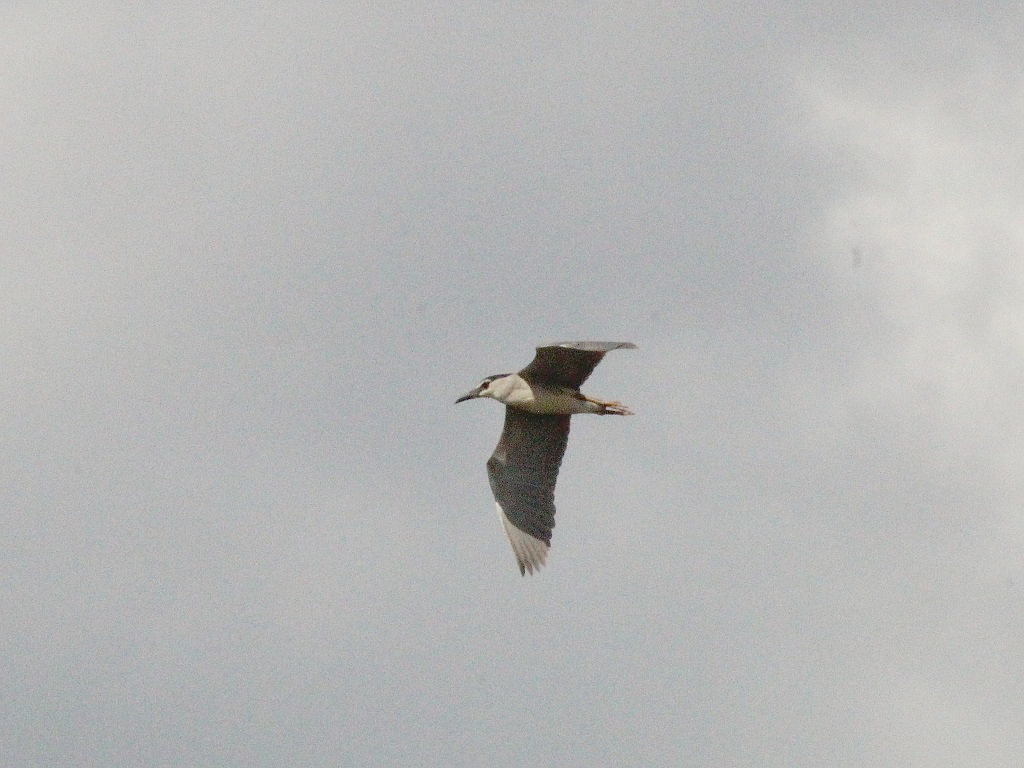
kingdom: Animalia
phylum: Chordata
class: Aves
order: Pelecaniformes
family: Ardeidae
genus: Nycticorax
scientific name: Nycticorax nycticorax
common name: Black-crowned night heron
